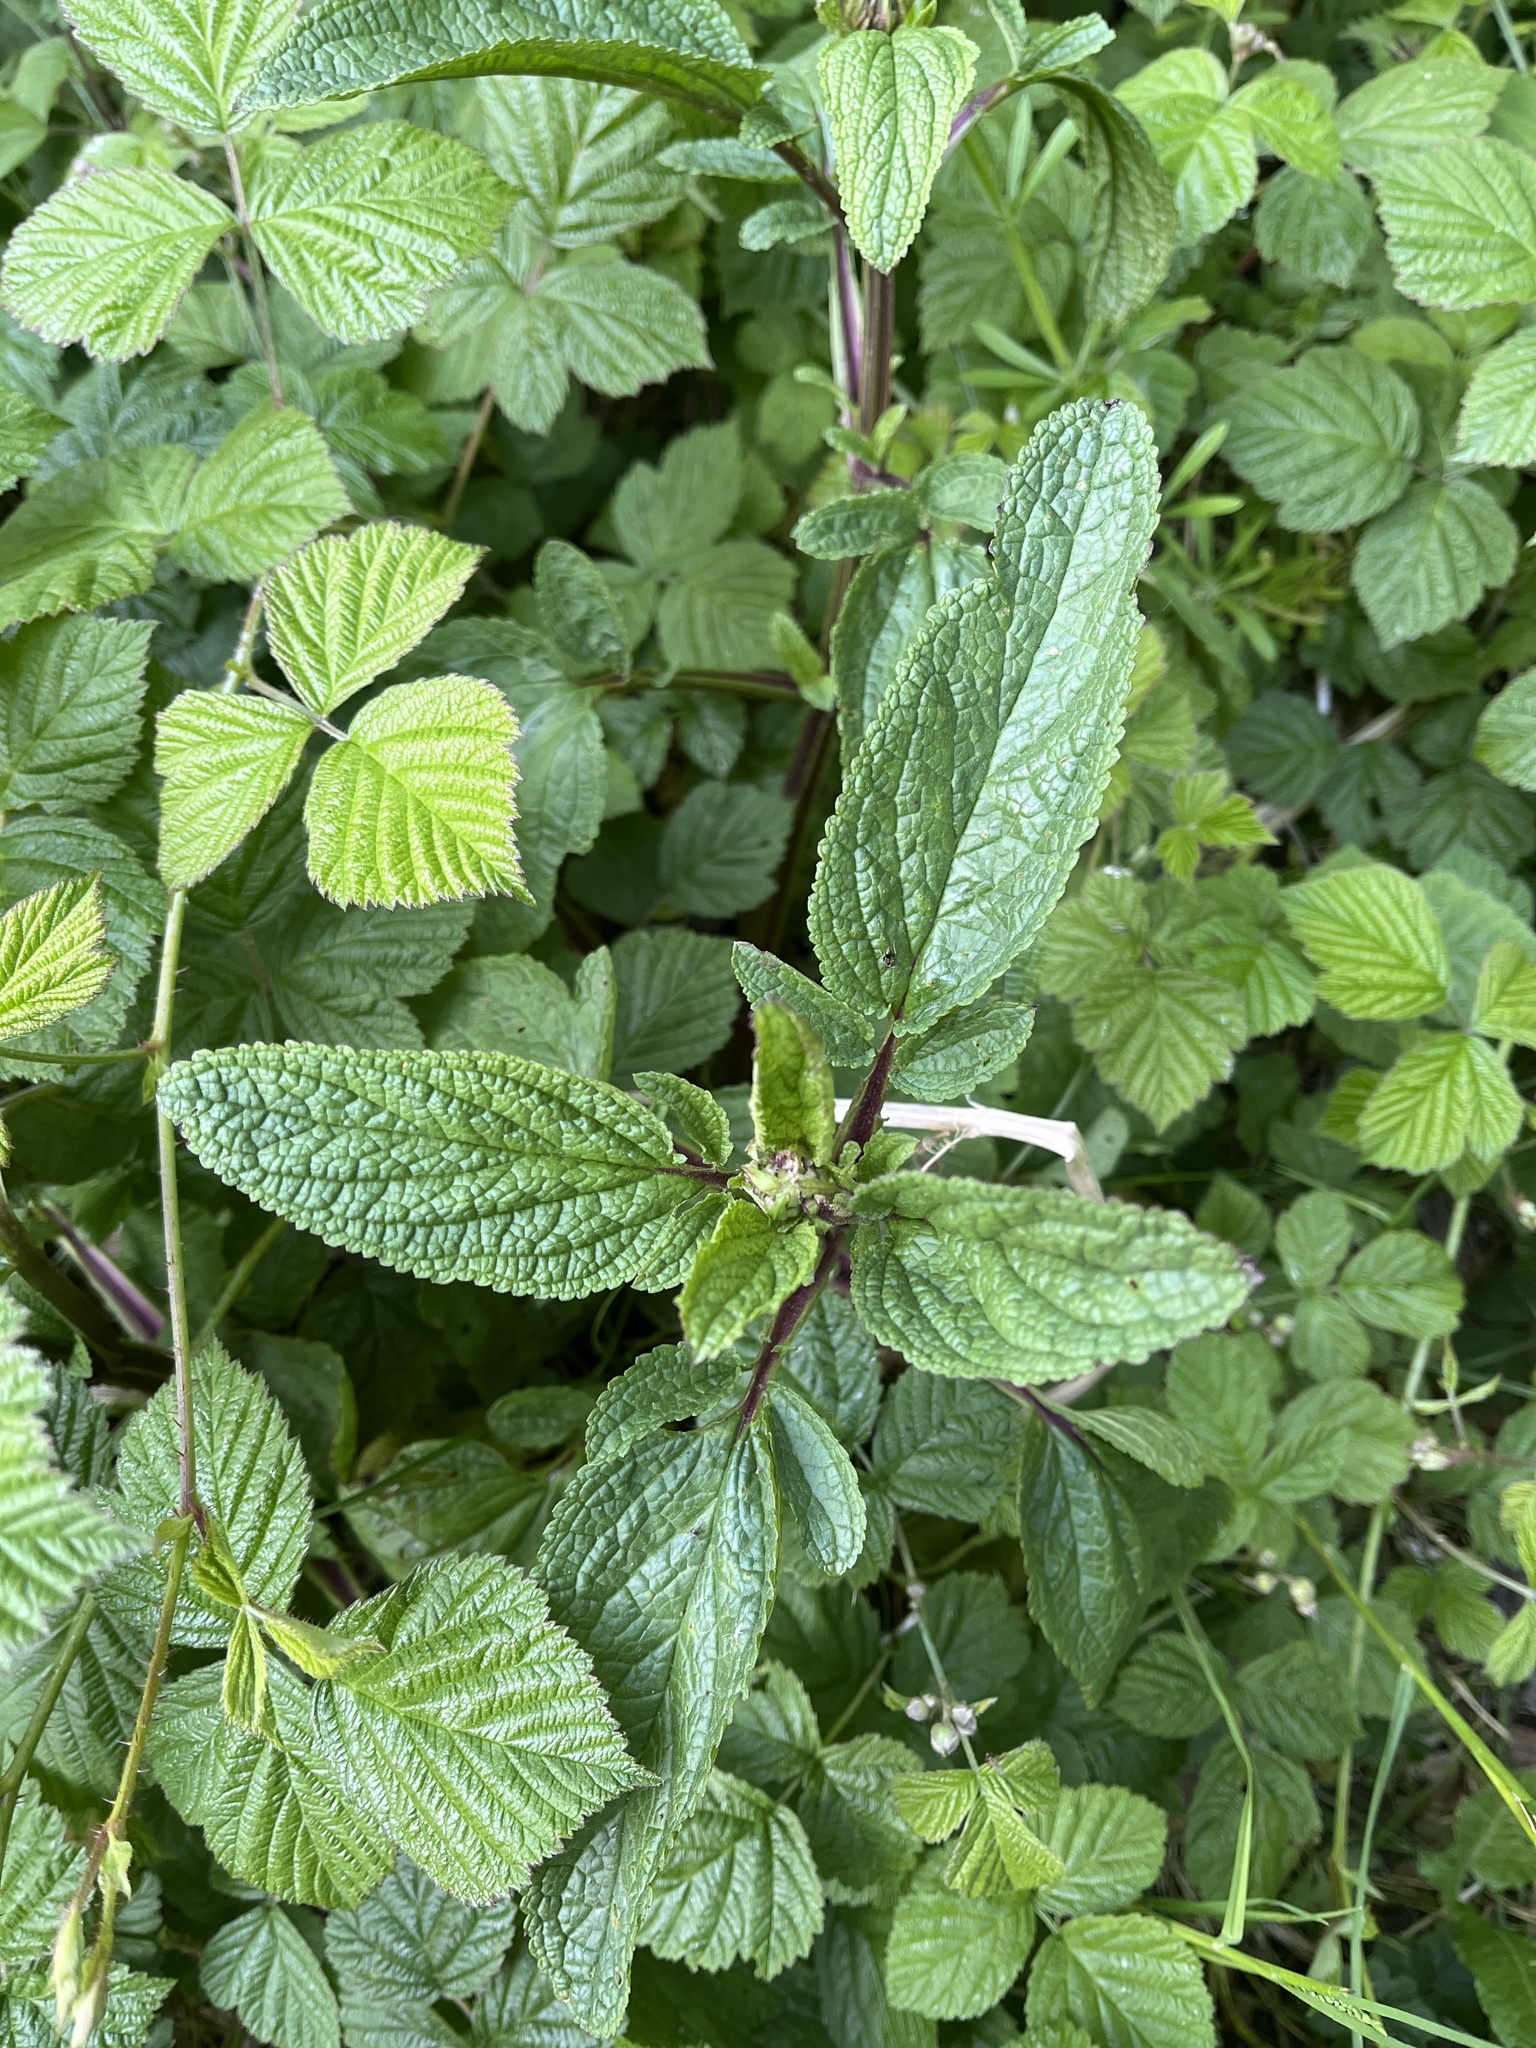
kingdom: Plantae
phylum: Tracheophyta
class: Magnoliopsida
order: Lamiales
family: Scrophulariaceae
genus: Scrophularia
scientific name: Scrophularia auriculata
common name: Water betony
